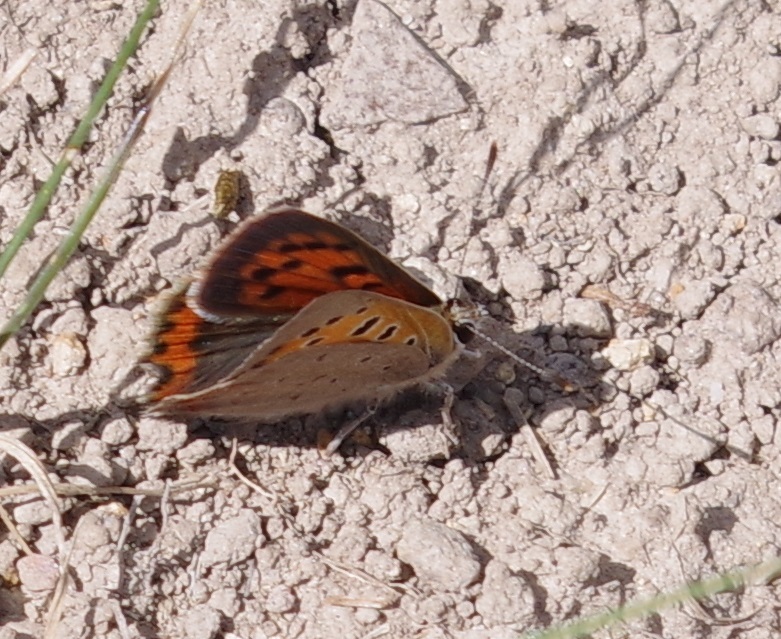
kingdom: Animalia
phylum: Arthropoda
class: Insecta
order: Lepidoptera
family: Lycaenidae
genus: Lycaena
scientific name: Lycaena phlaeas
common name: Small copper
